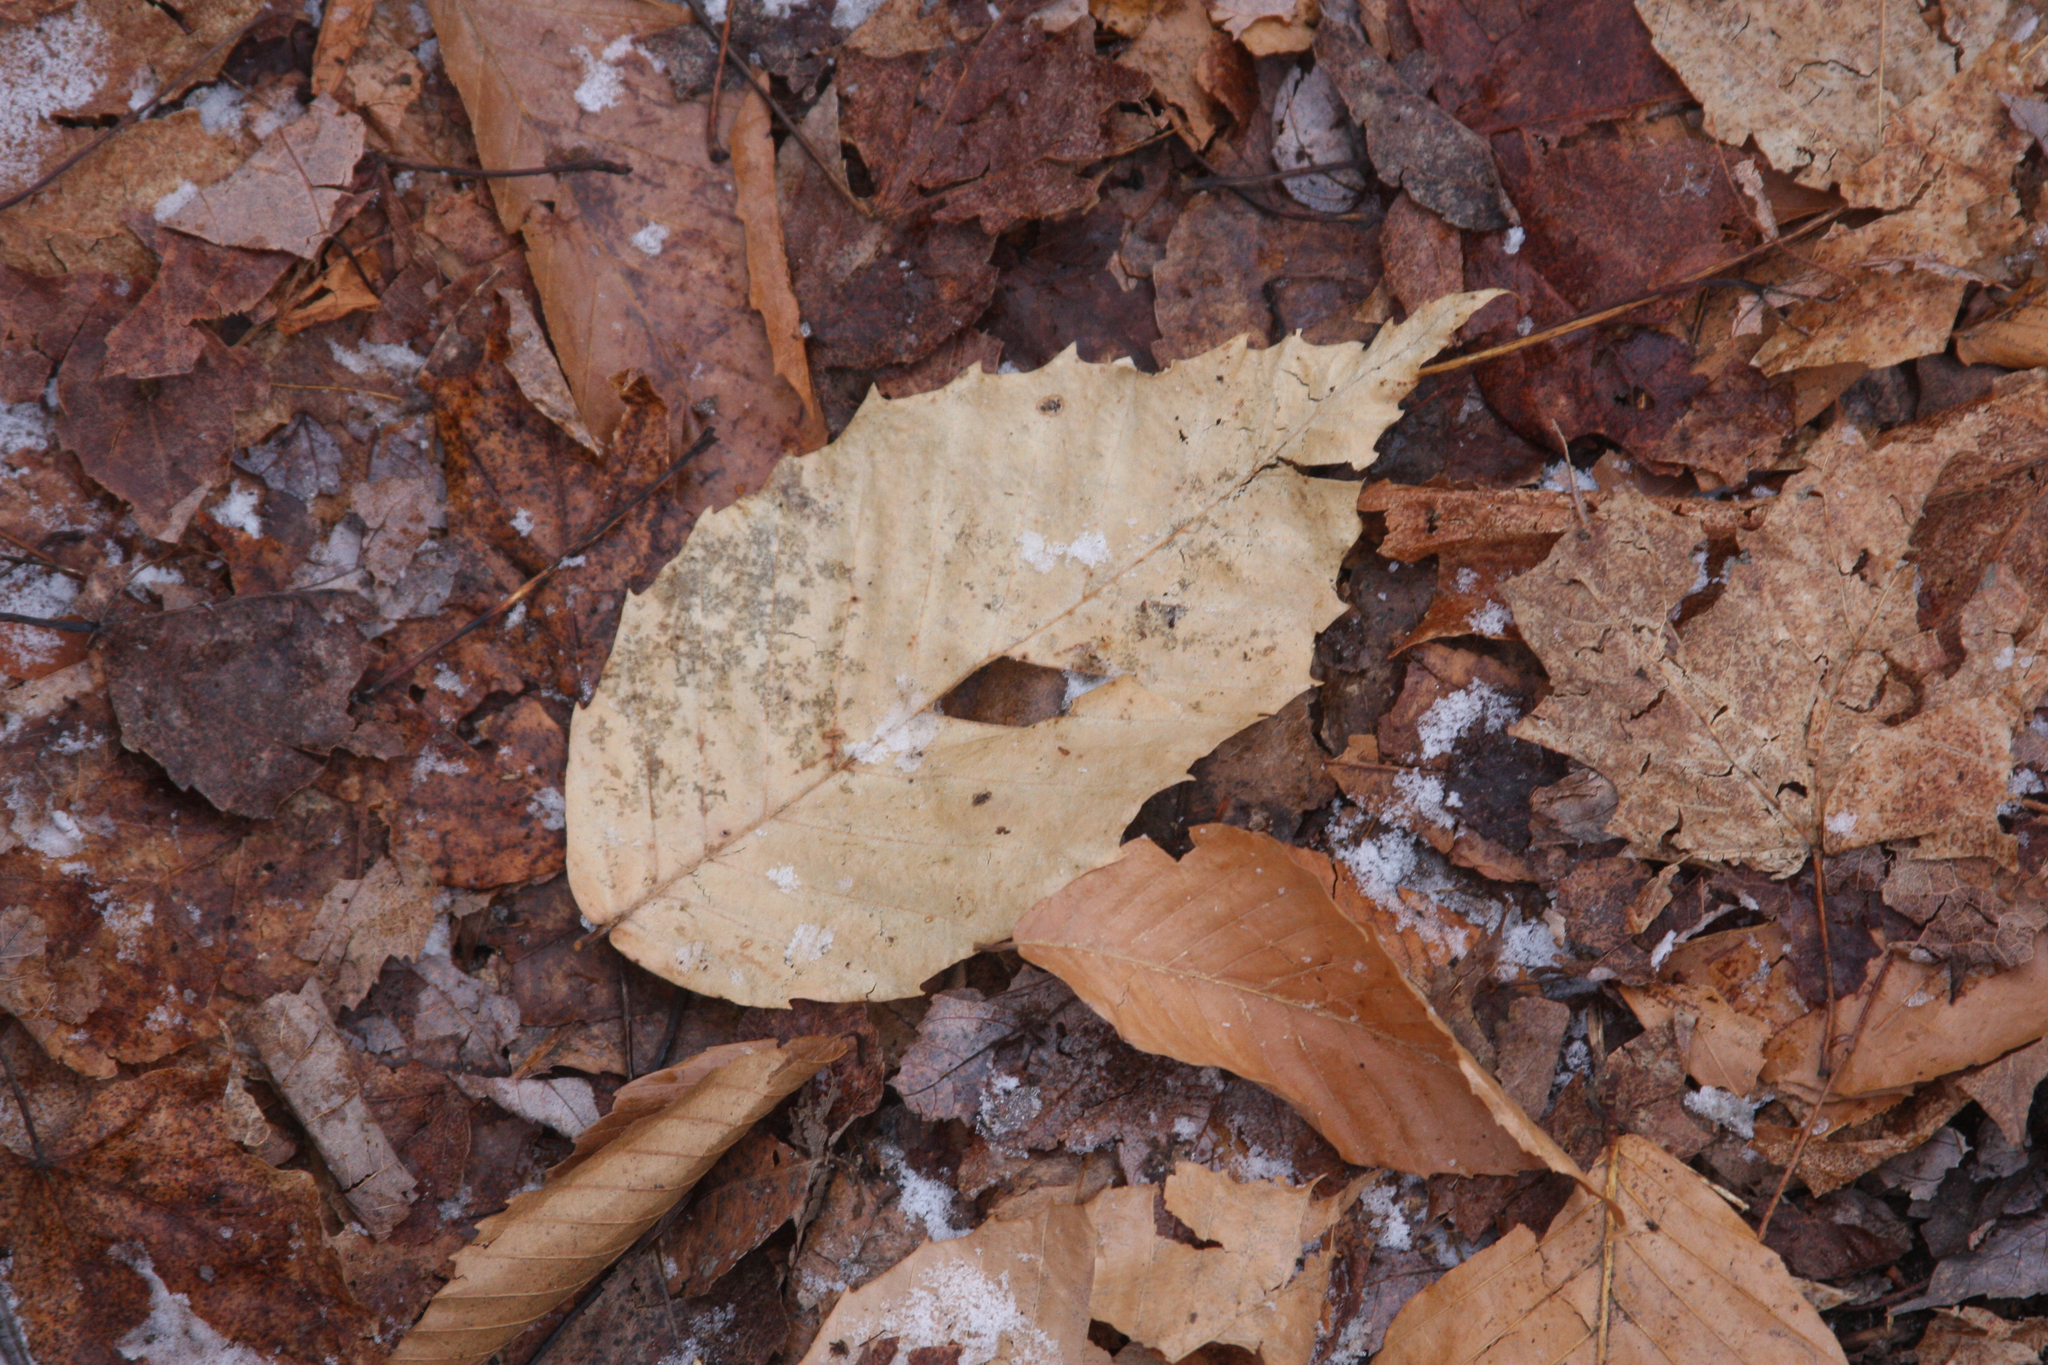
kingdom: Plantae
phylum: Tracheophyta
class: Magnoliopsida
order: Fagales
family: Fagaceae
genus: Fagus
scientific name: Fagus grandifolia
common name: American beech
